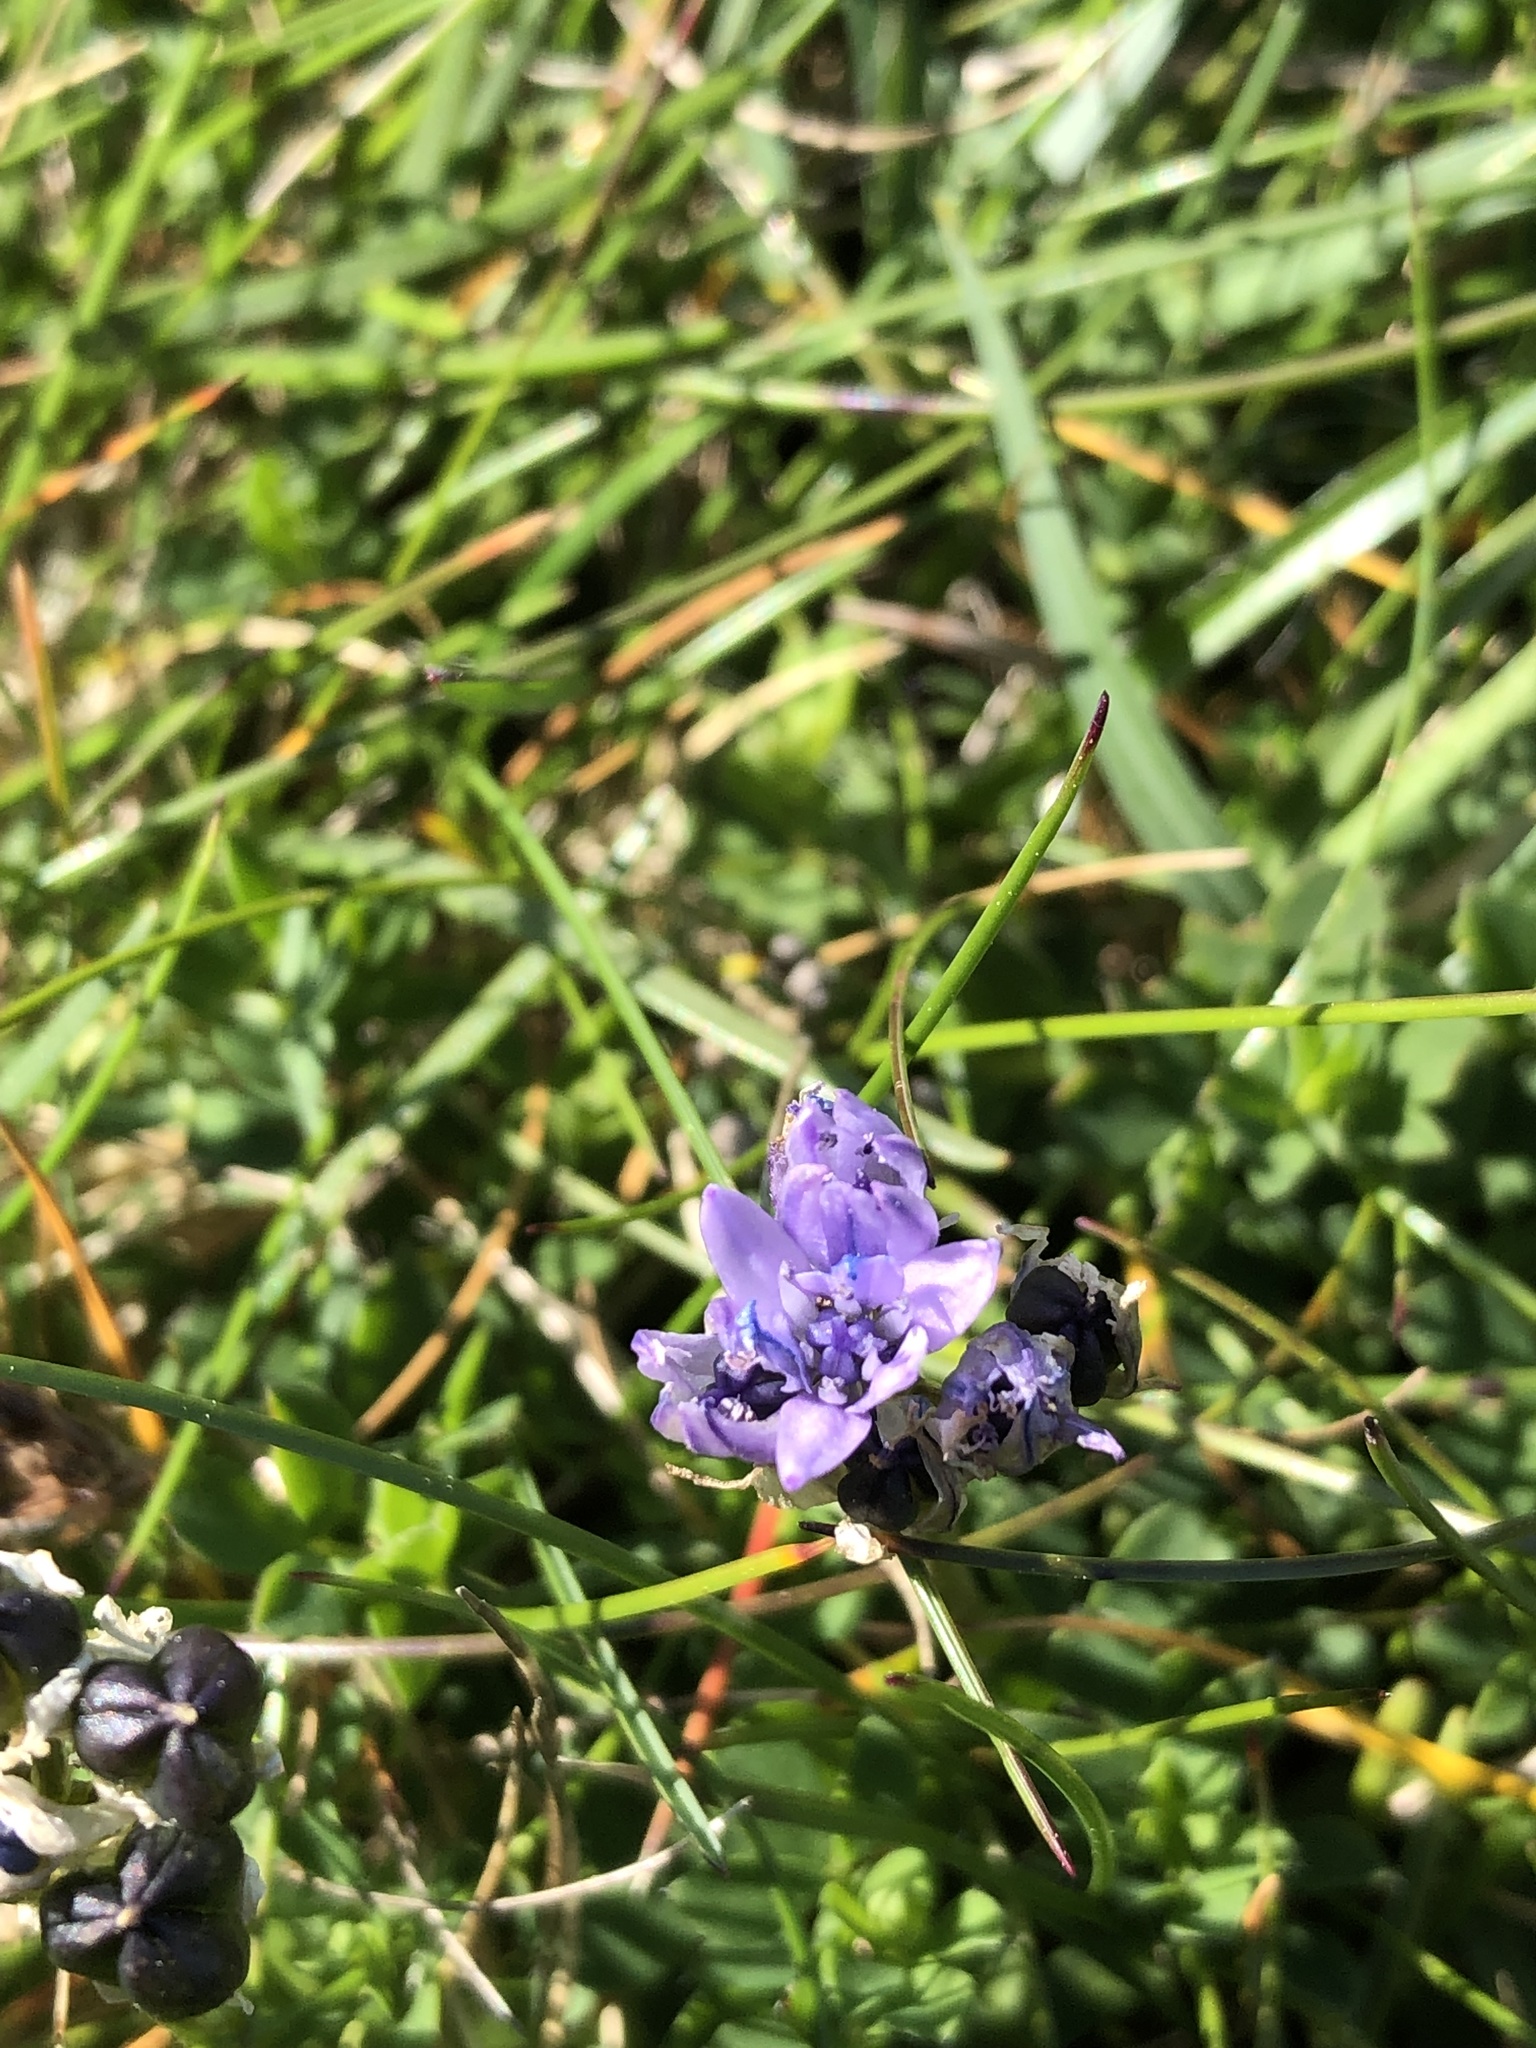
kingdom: Plantae
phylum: Tracheophyta
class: Liliopsida
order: Asparagales
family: Asparagaceae
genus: Scilla
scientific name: Scilla verna
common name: Spring squill
